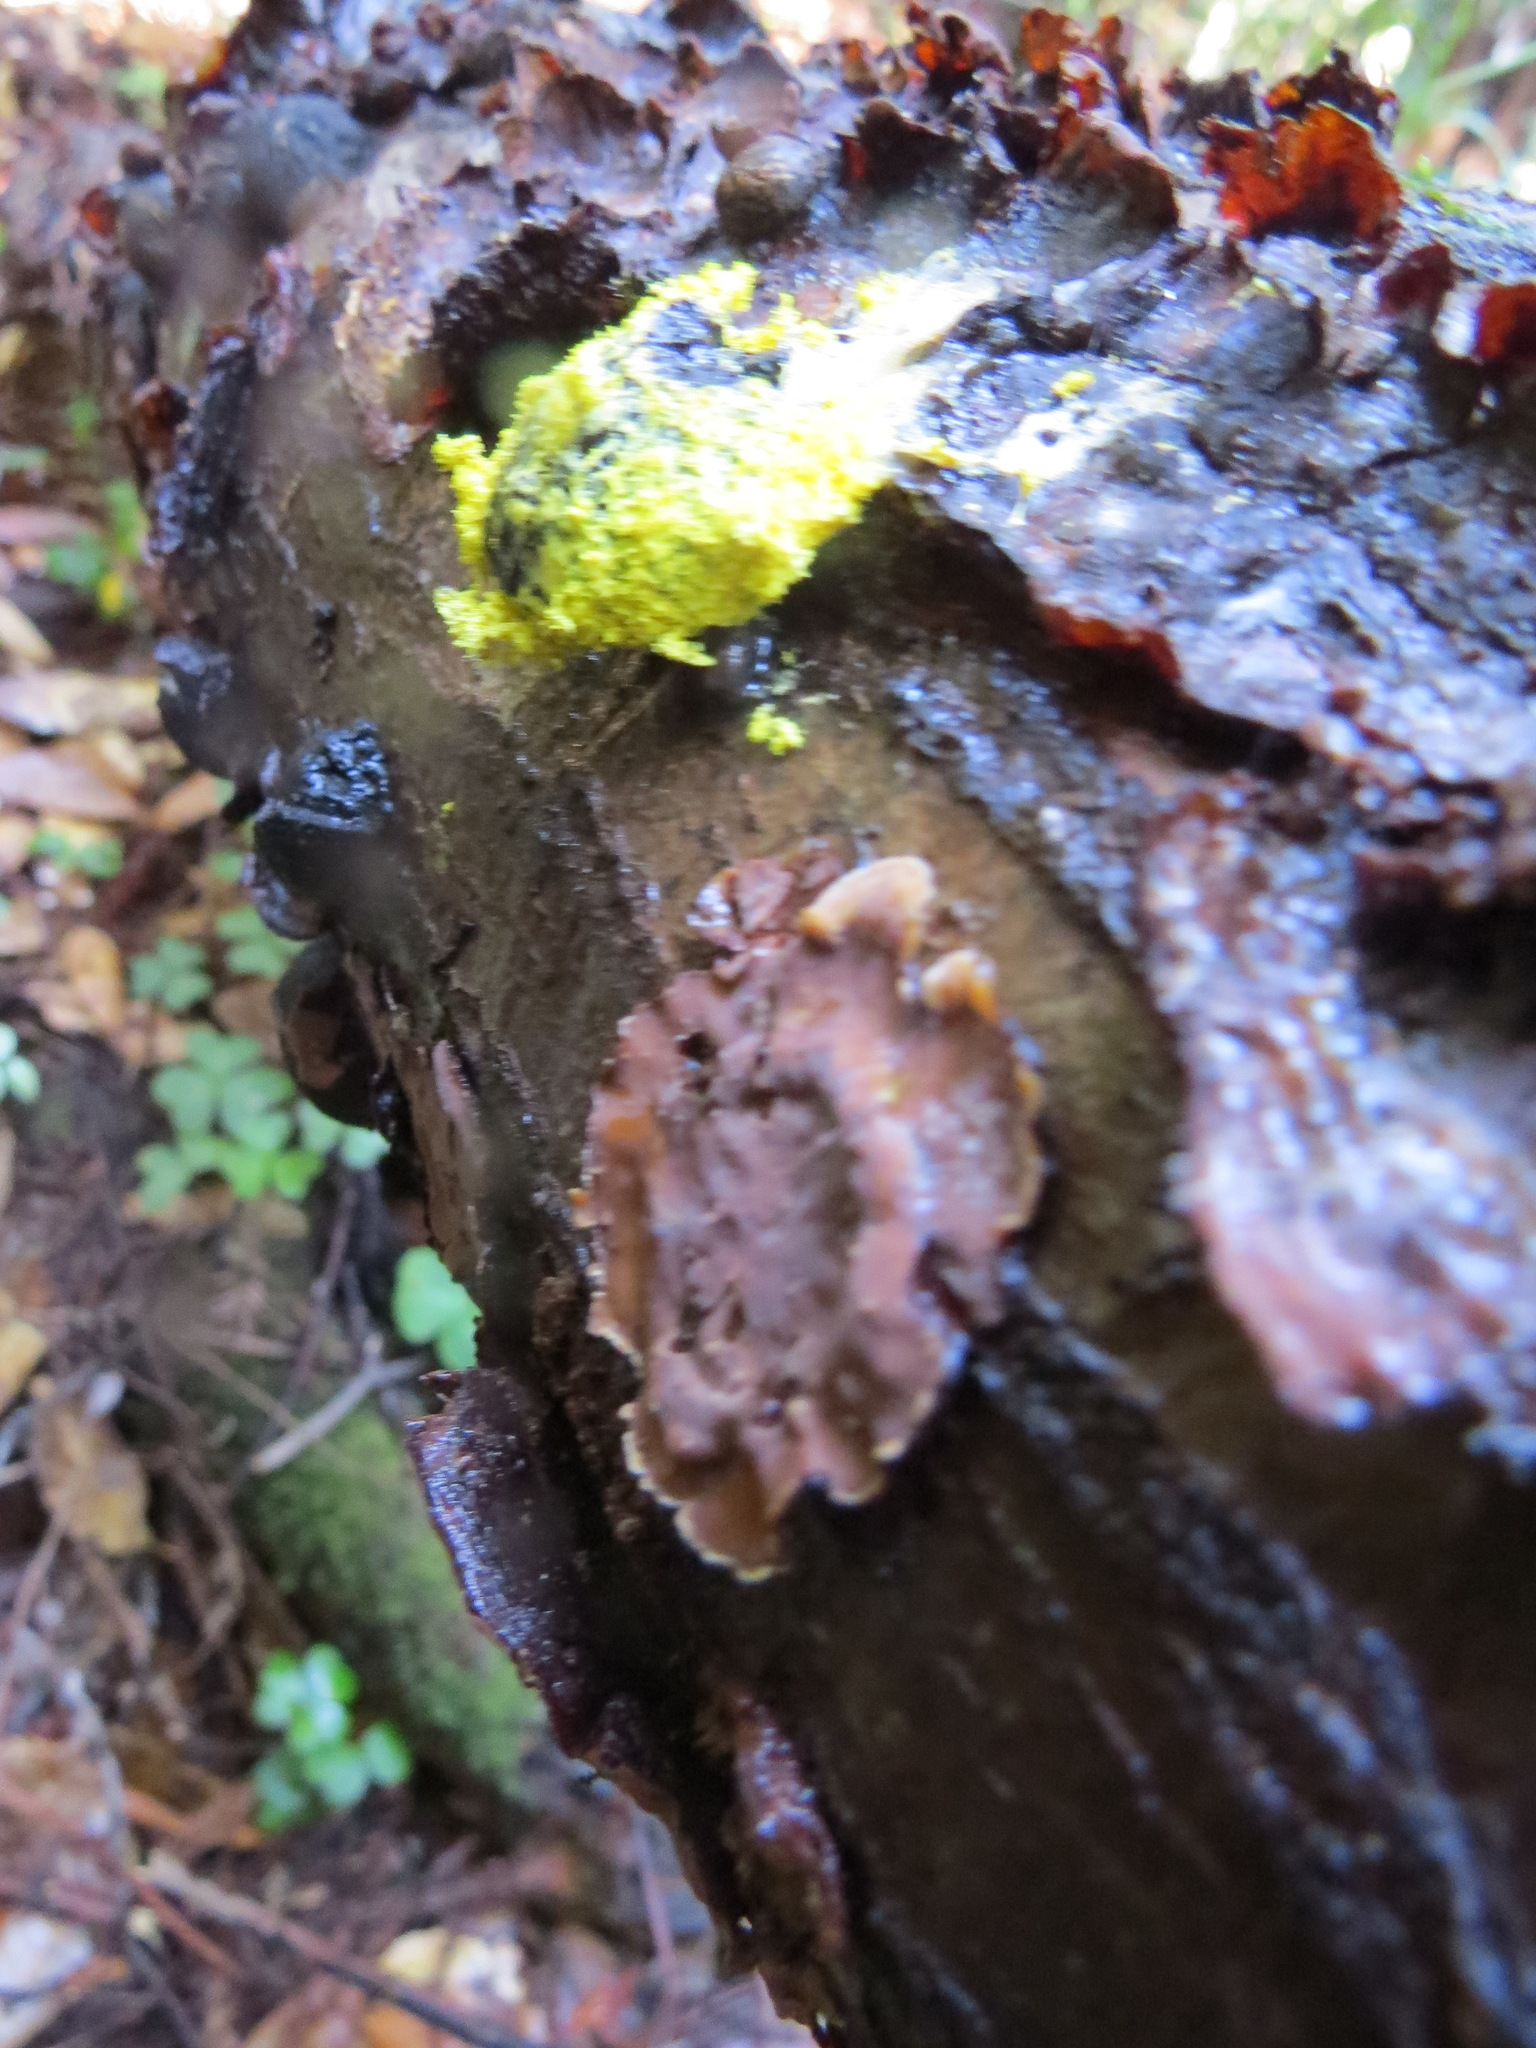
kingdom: Protozoa
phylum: Mycetozoa
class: Myxomycetes
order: Physarales
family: Physaraceae
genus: Fuligo
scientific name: Fuligo septica
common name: Dog vomit slime mold
